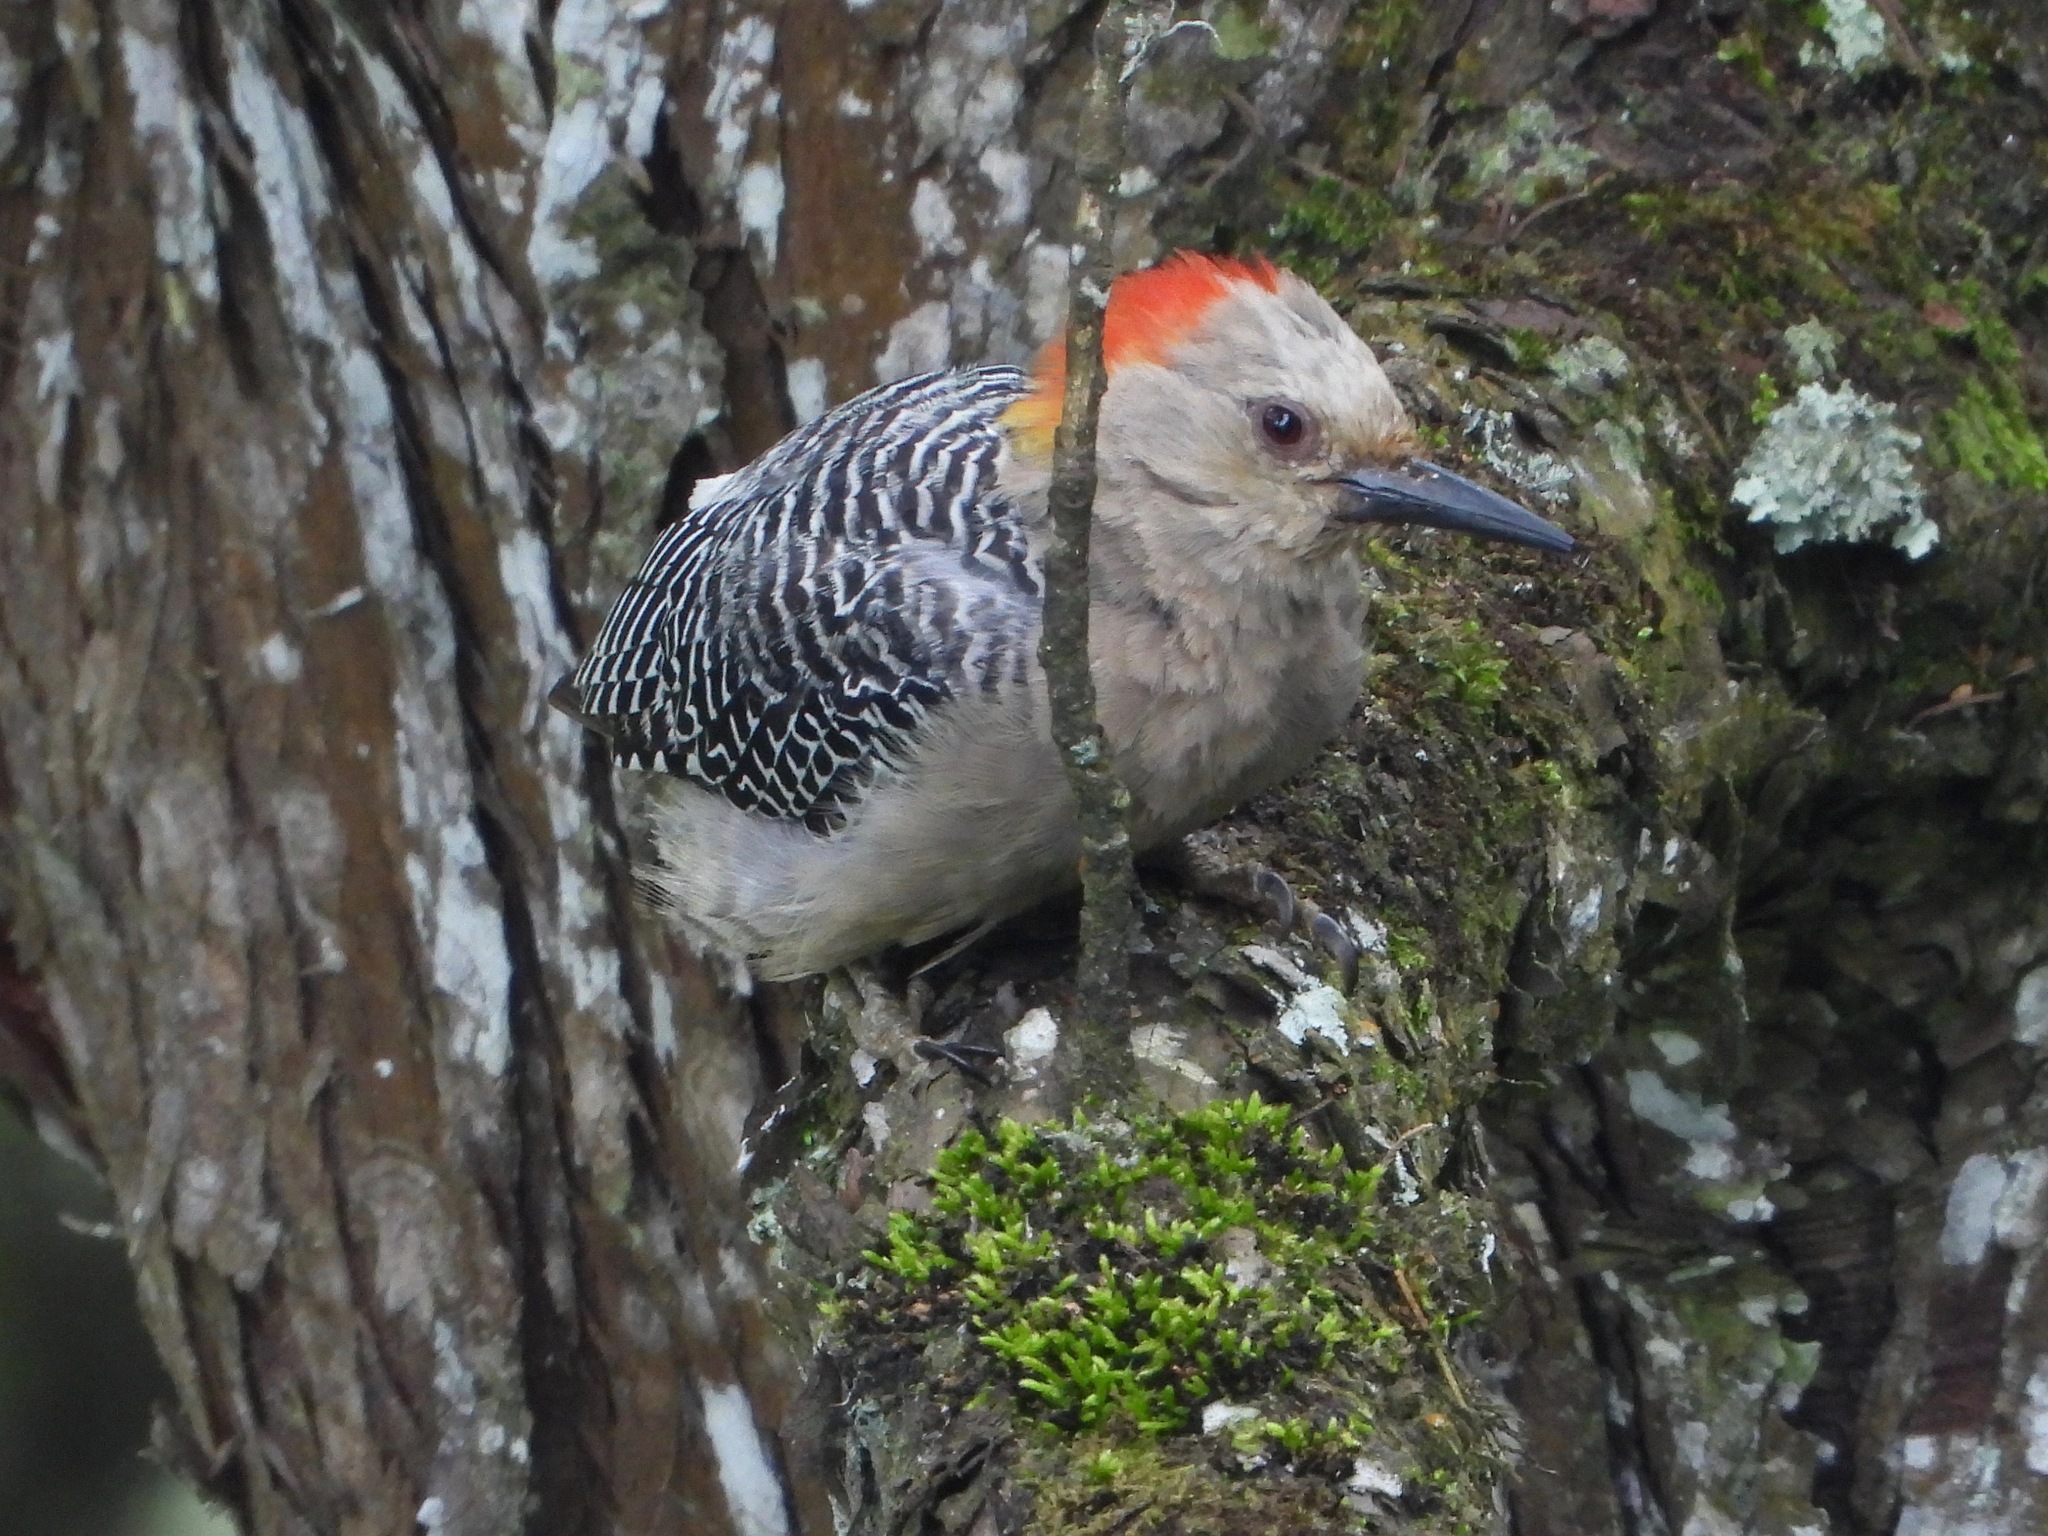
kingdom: Animalia
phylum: Chordata
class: Aves
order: Piciformes
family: Picidae
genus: Melanerpes
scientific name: Melanerpes santacruzi
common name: Velasquez's woodpecker
